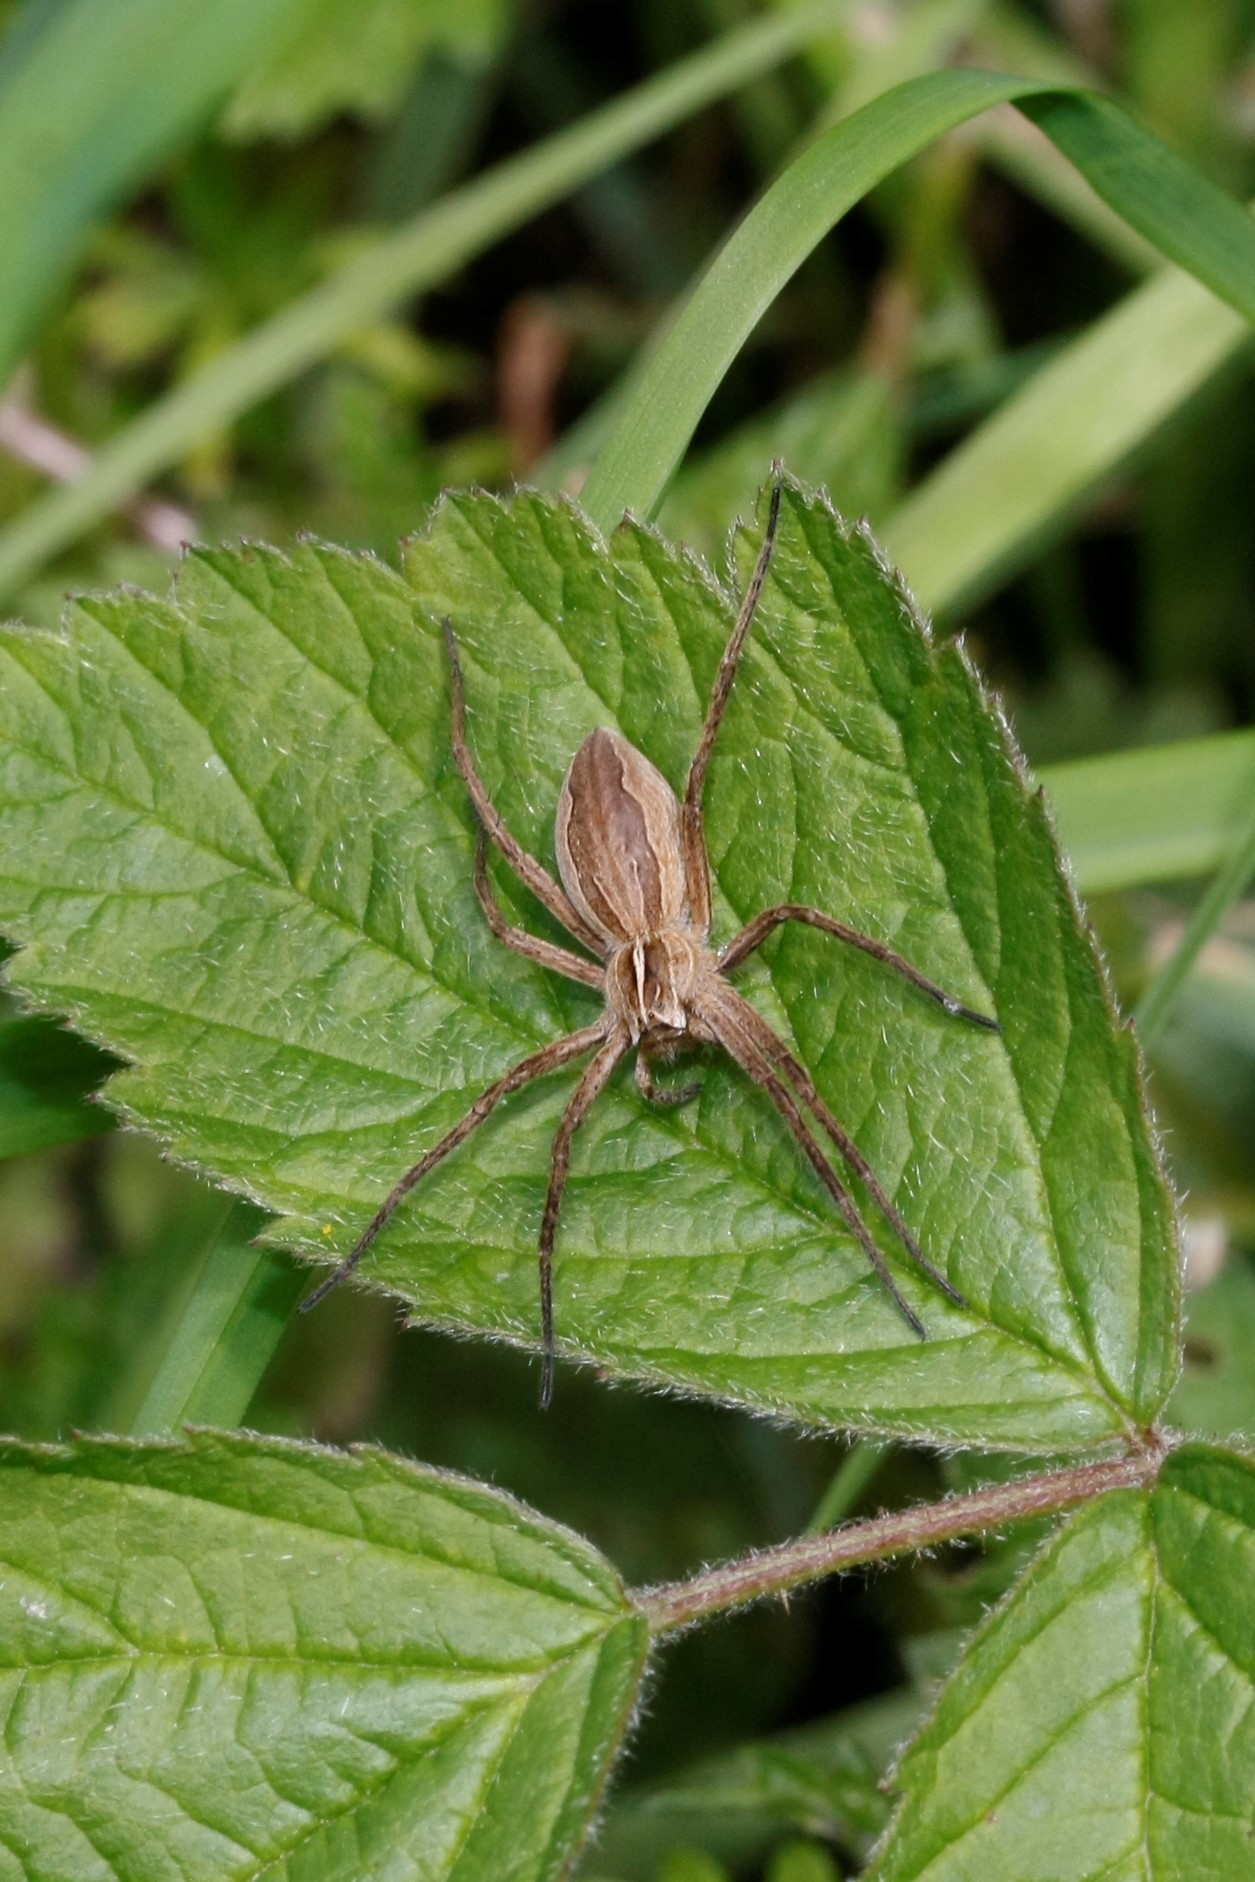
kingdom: Animalia
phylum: Arthropoda
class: Arachnida
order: Araneae
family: Pisauridae
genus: Pisaura
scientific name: Pisaura mirabilis
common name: Tent spider
